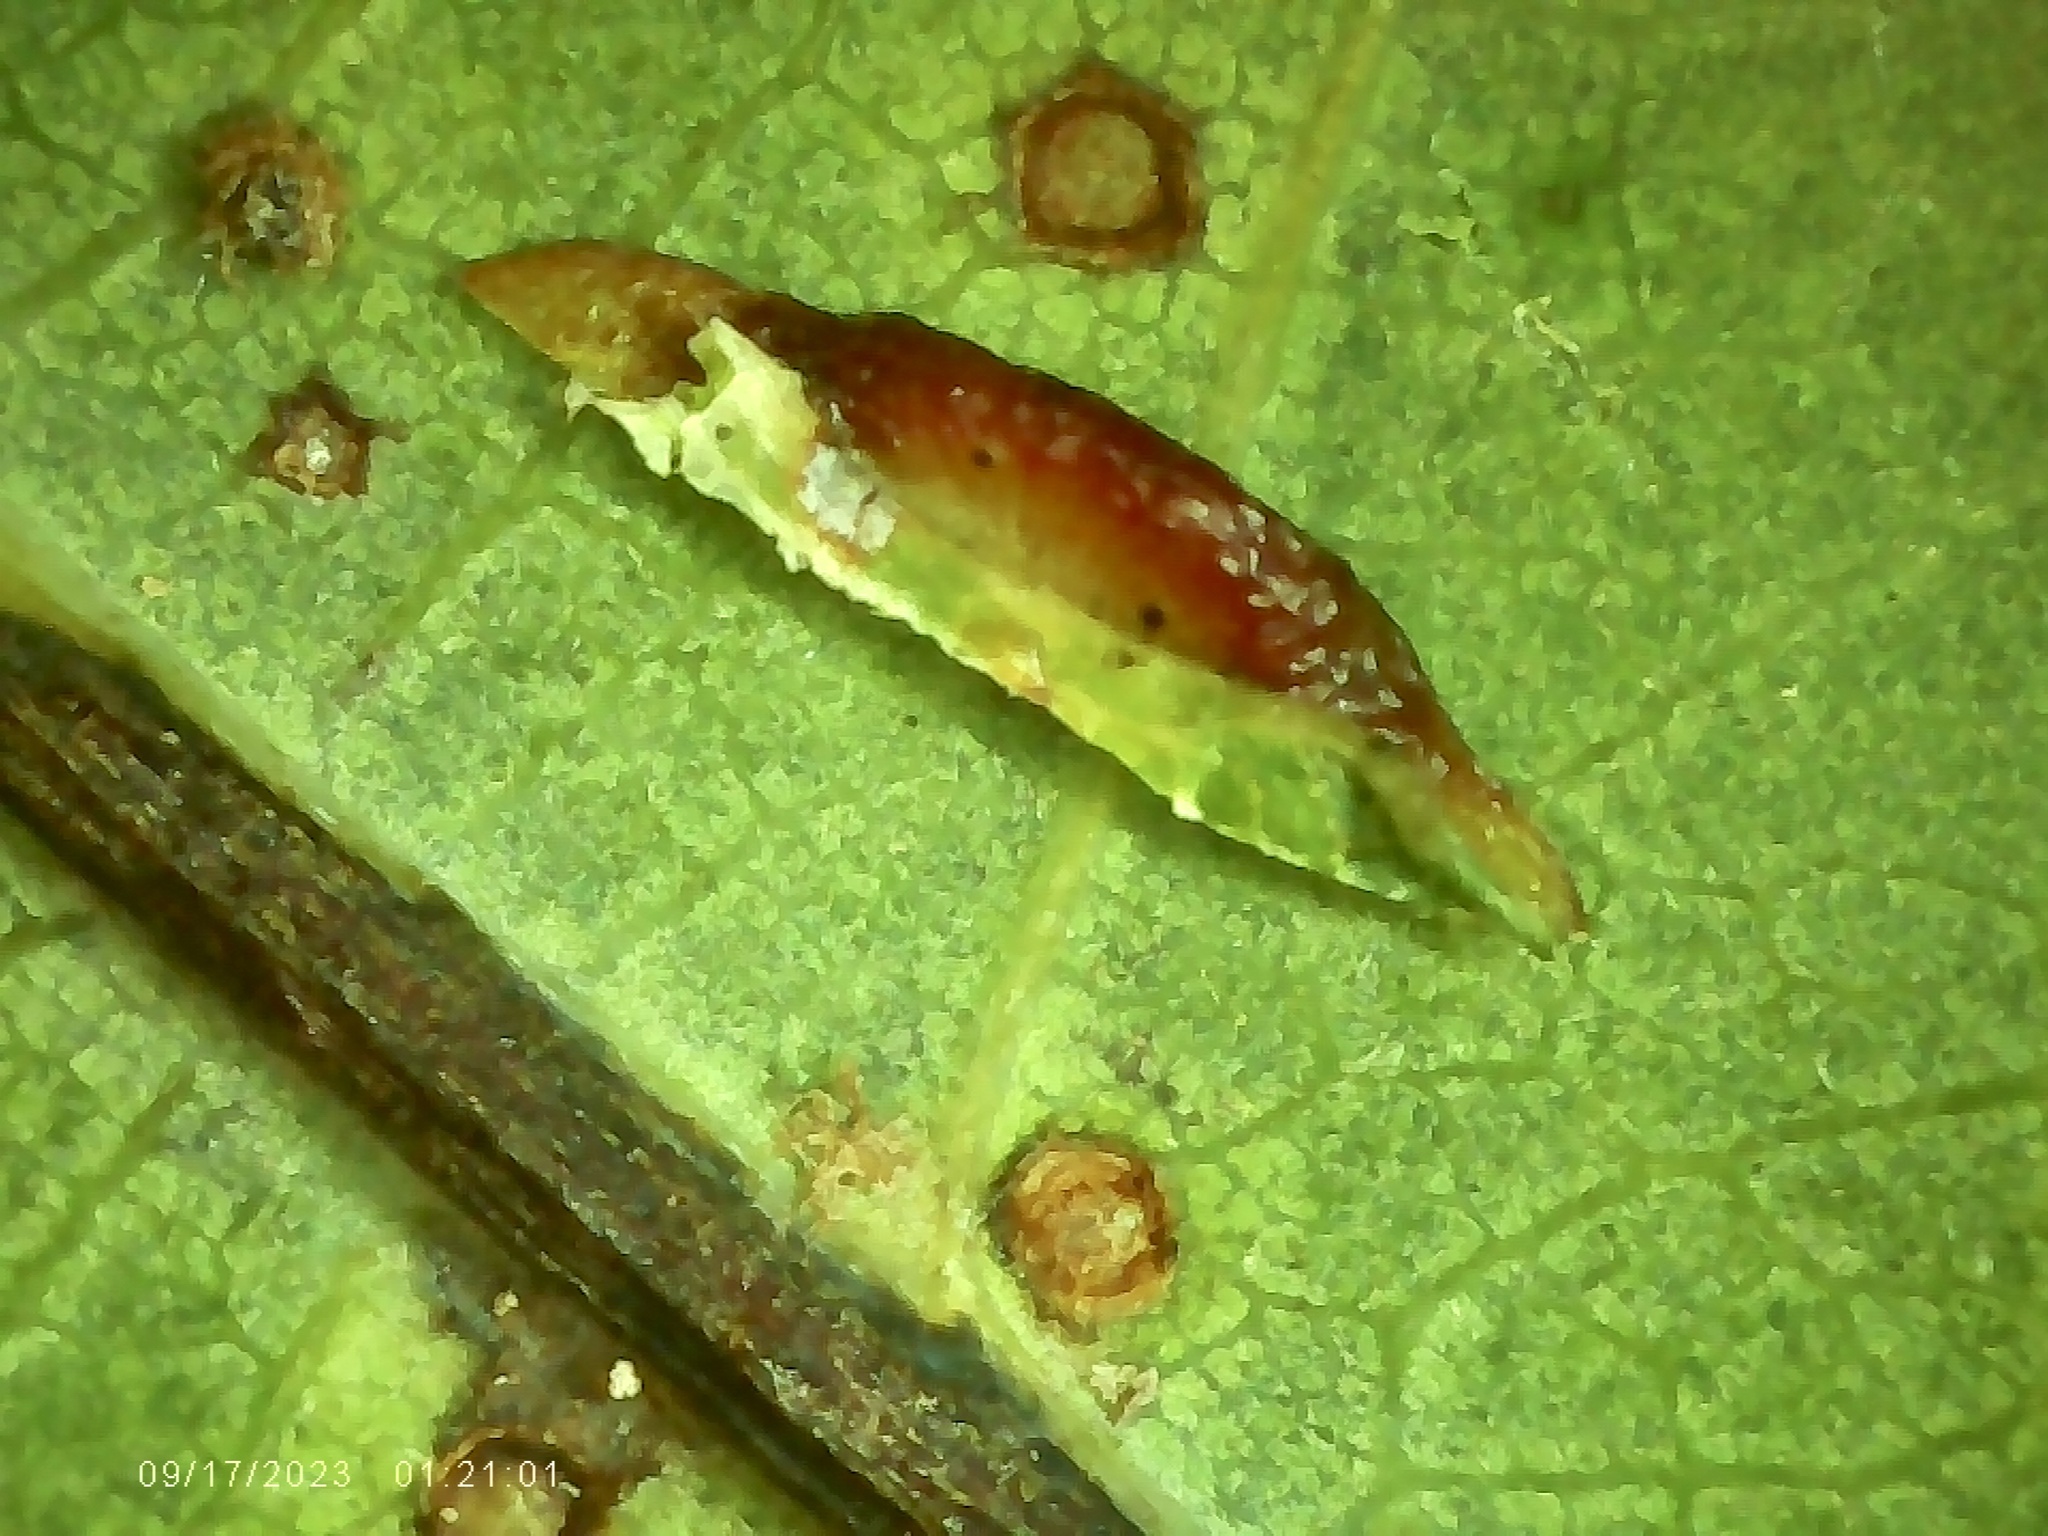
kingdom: Animalia
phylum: Arthropoda
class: Insecta
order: Hymenoptera
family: Cynipidae
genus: Phylloteras
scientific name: Phylloteras
